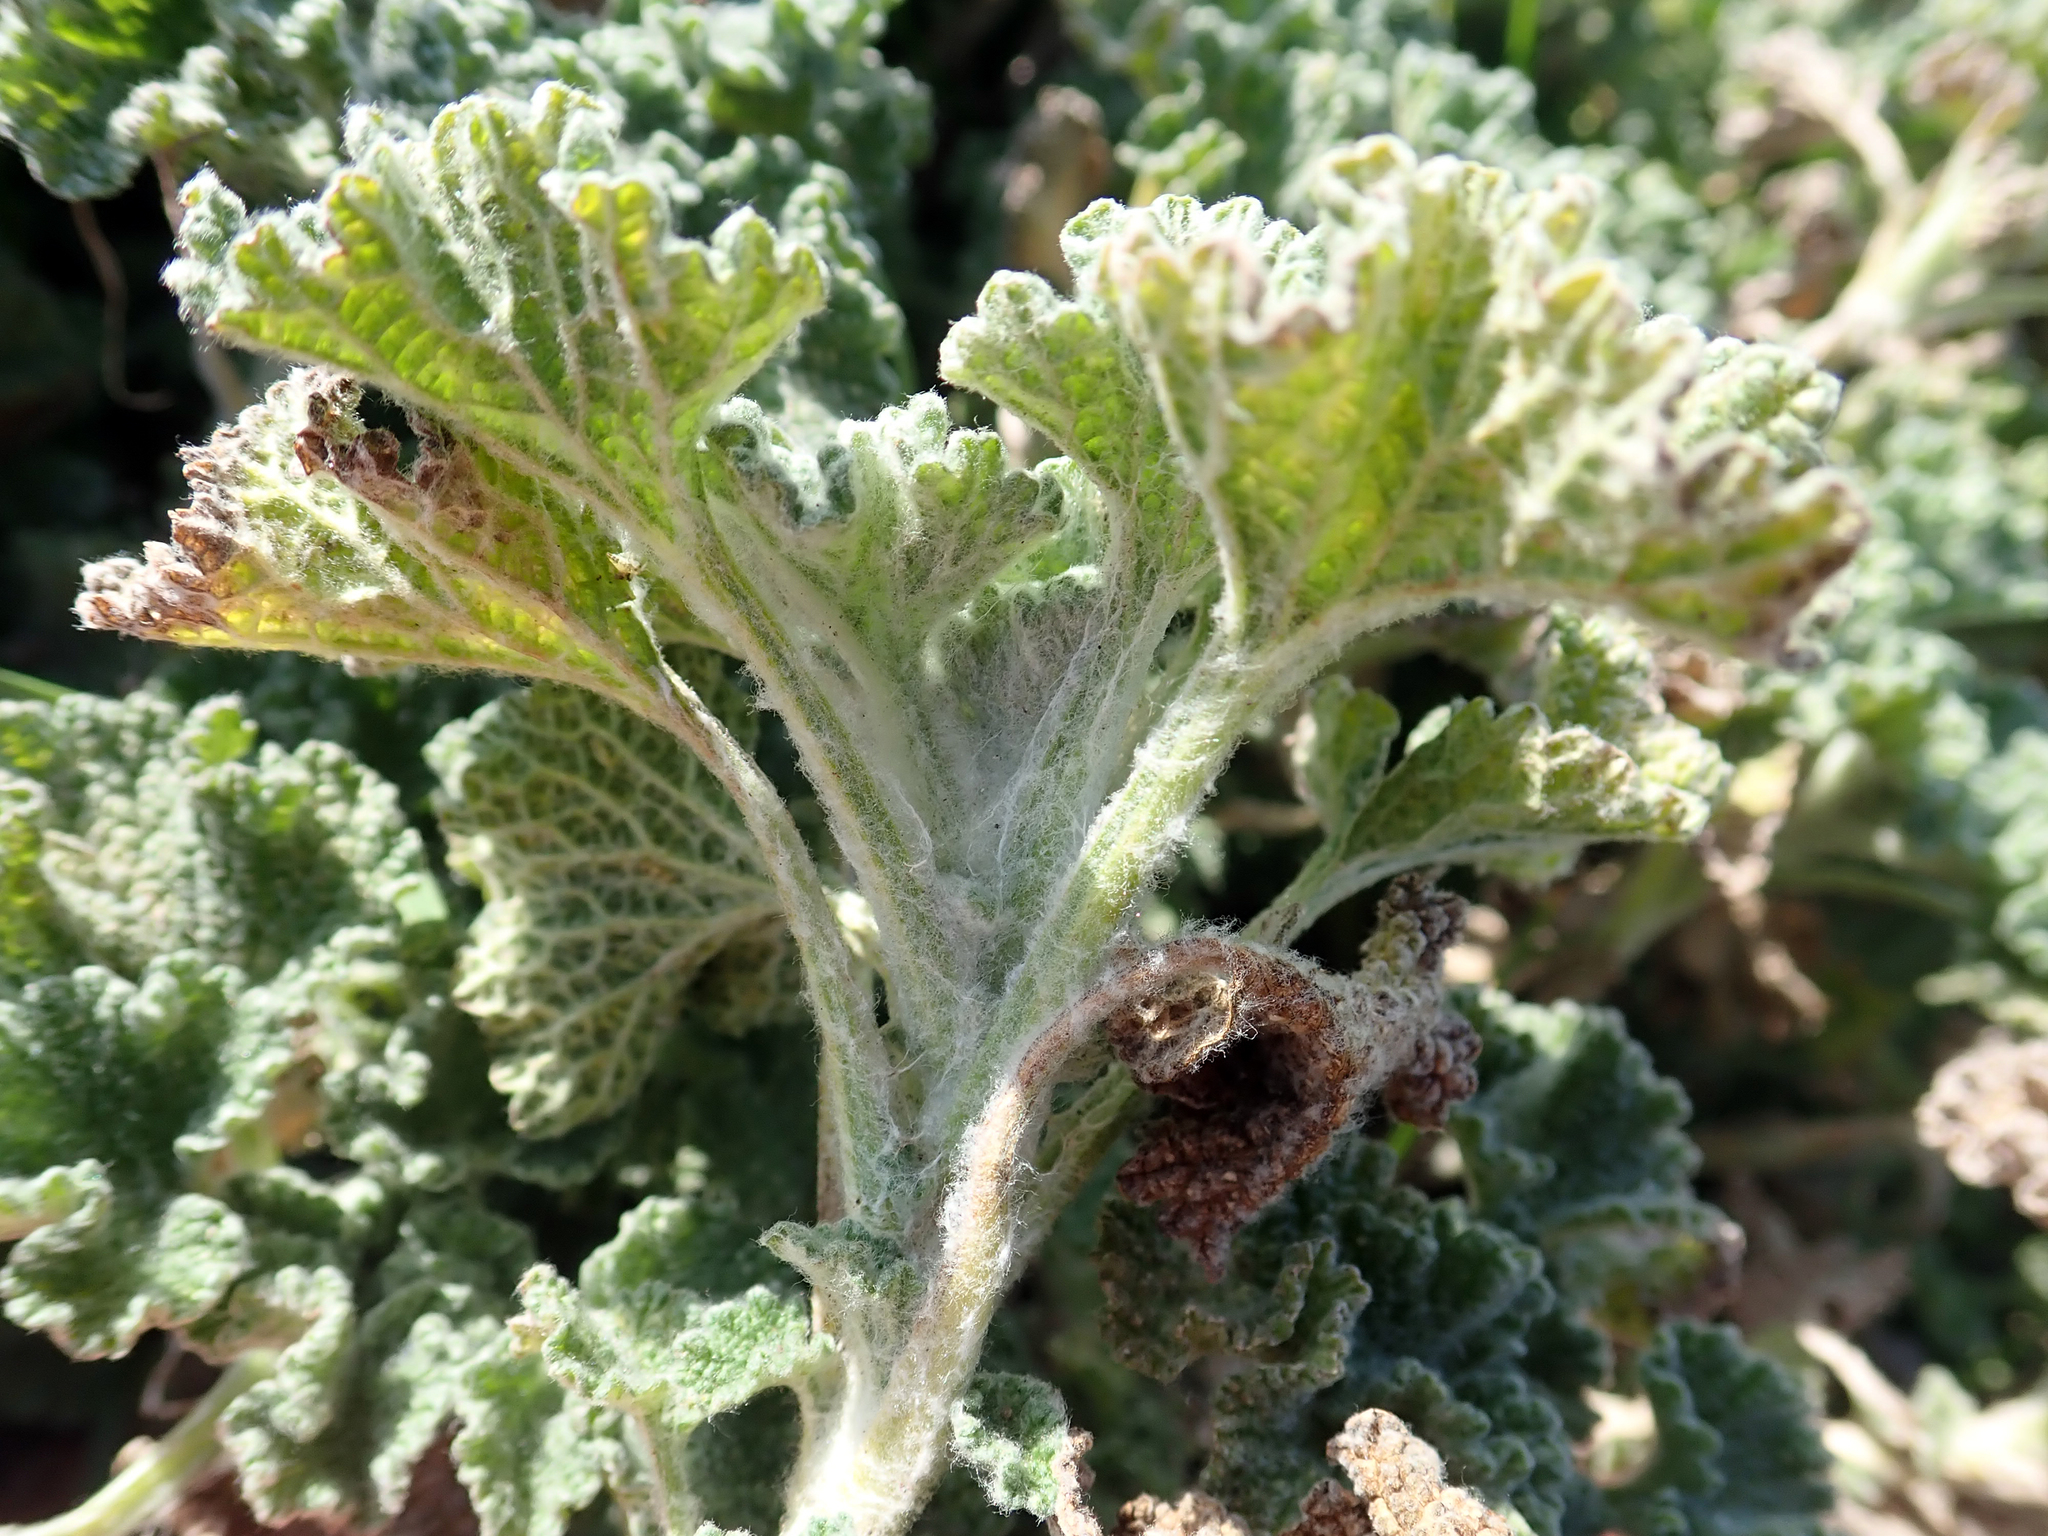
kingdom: Plantae
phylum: Tracheophyta
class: Magnoliopsida
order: Lamiales
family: Lamiaceae
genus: Marrubium
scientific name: Marrubium vulgare
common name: Horehound
